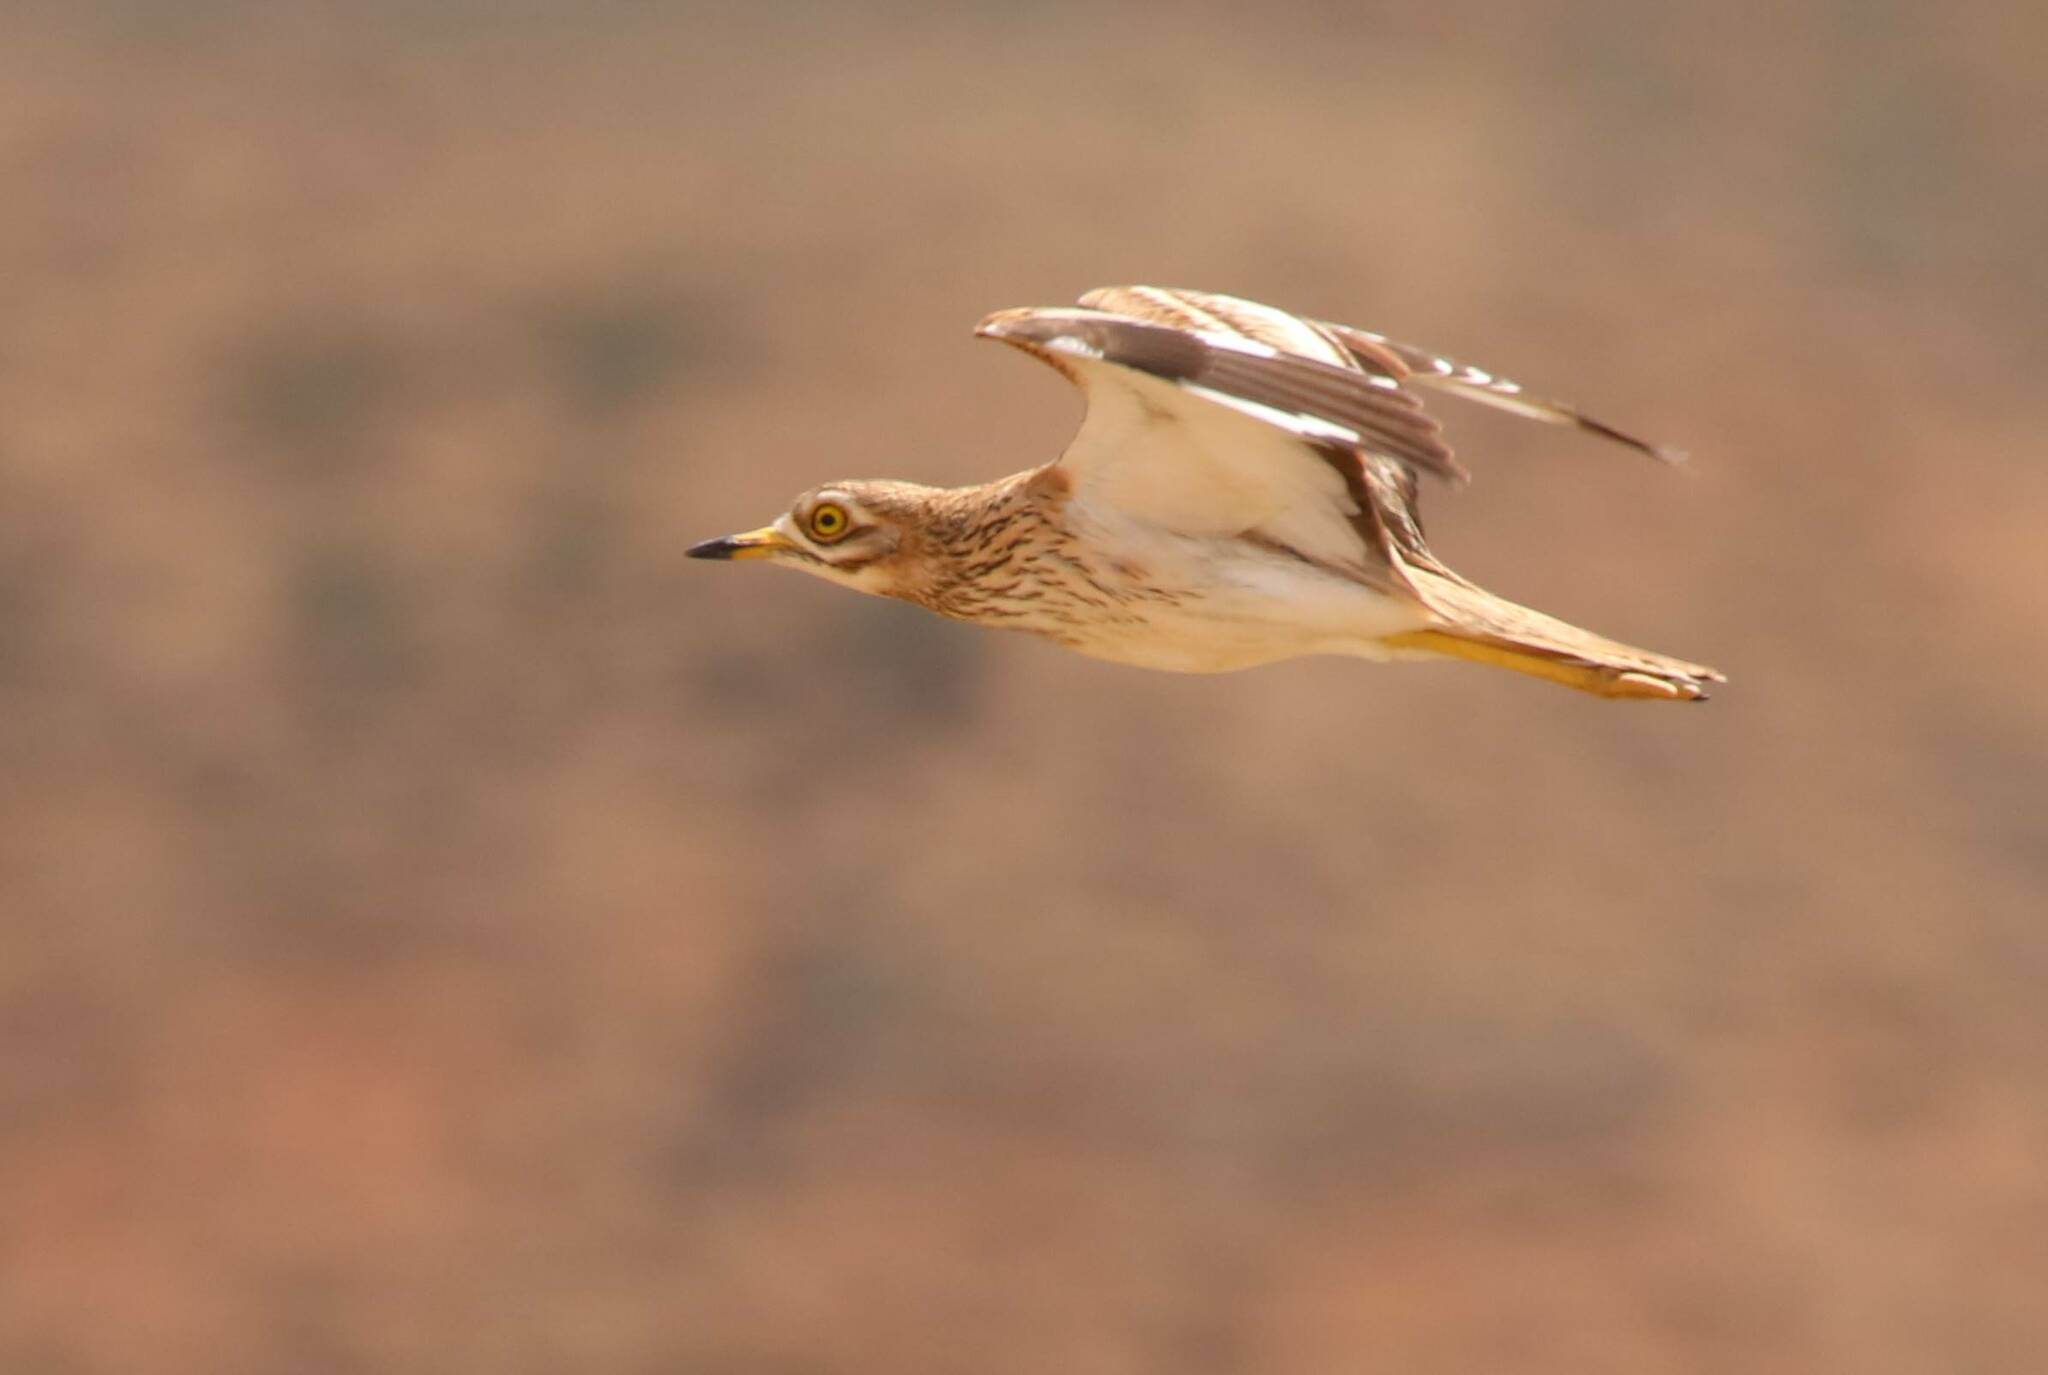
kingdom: Animalia
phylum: Chordata
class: Aves
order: Charadriiformes
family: Burhinidae
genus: Burhinus
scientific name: Burhinus oedicnemus
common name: Eurasian stone-curlew
